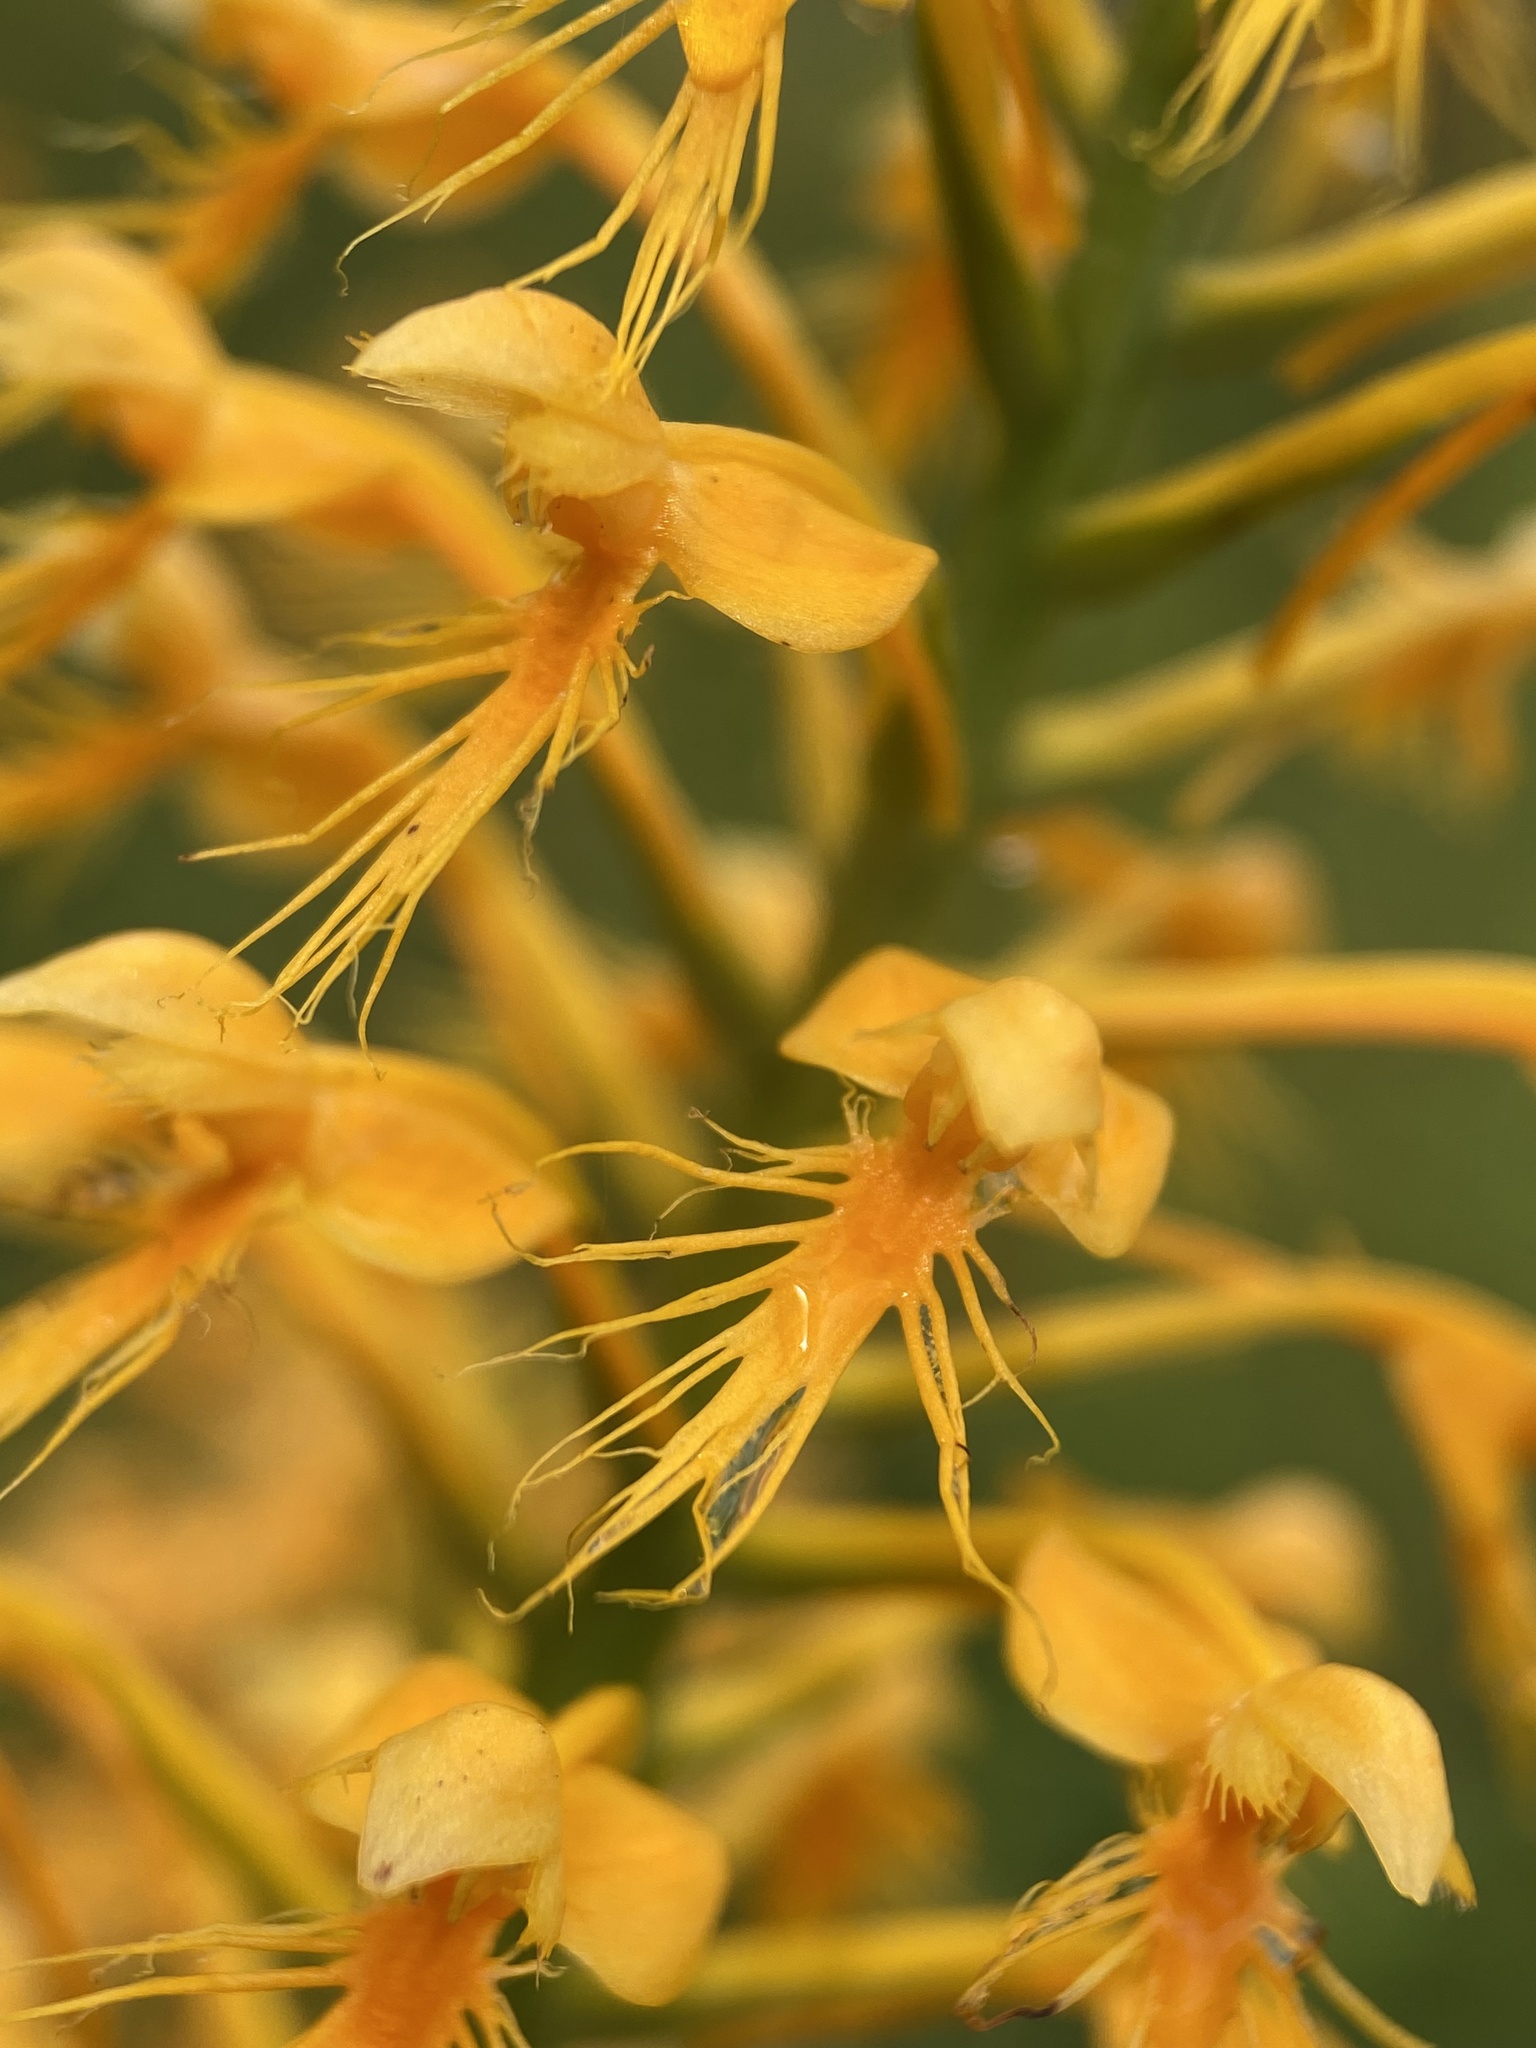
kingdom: Plantae
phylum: Tracheophyta
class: Liliopsida
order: Asparagales
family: Orchidaceae
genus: Platanthera
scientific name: Platanthera chapmanii
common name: Chapman’s fringed orchid
